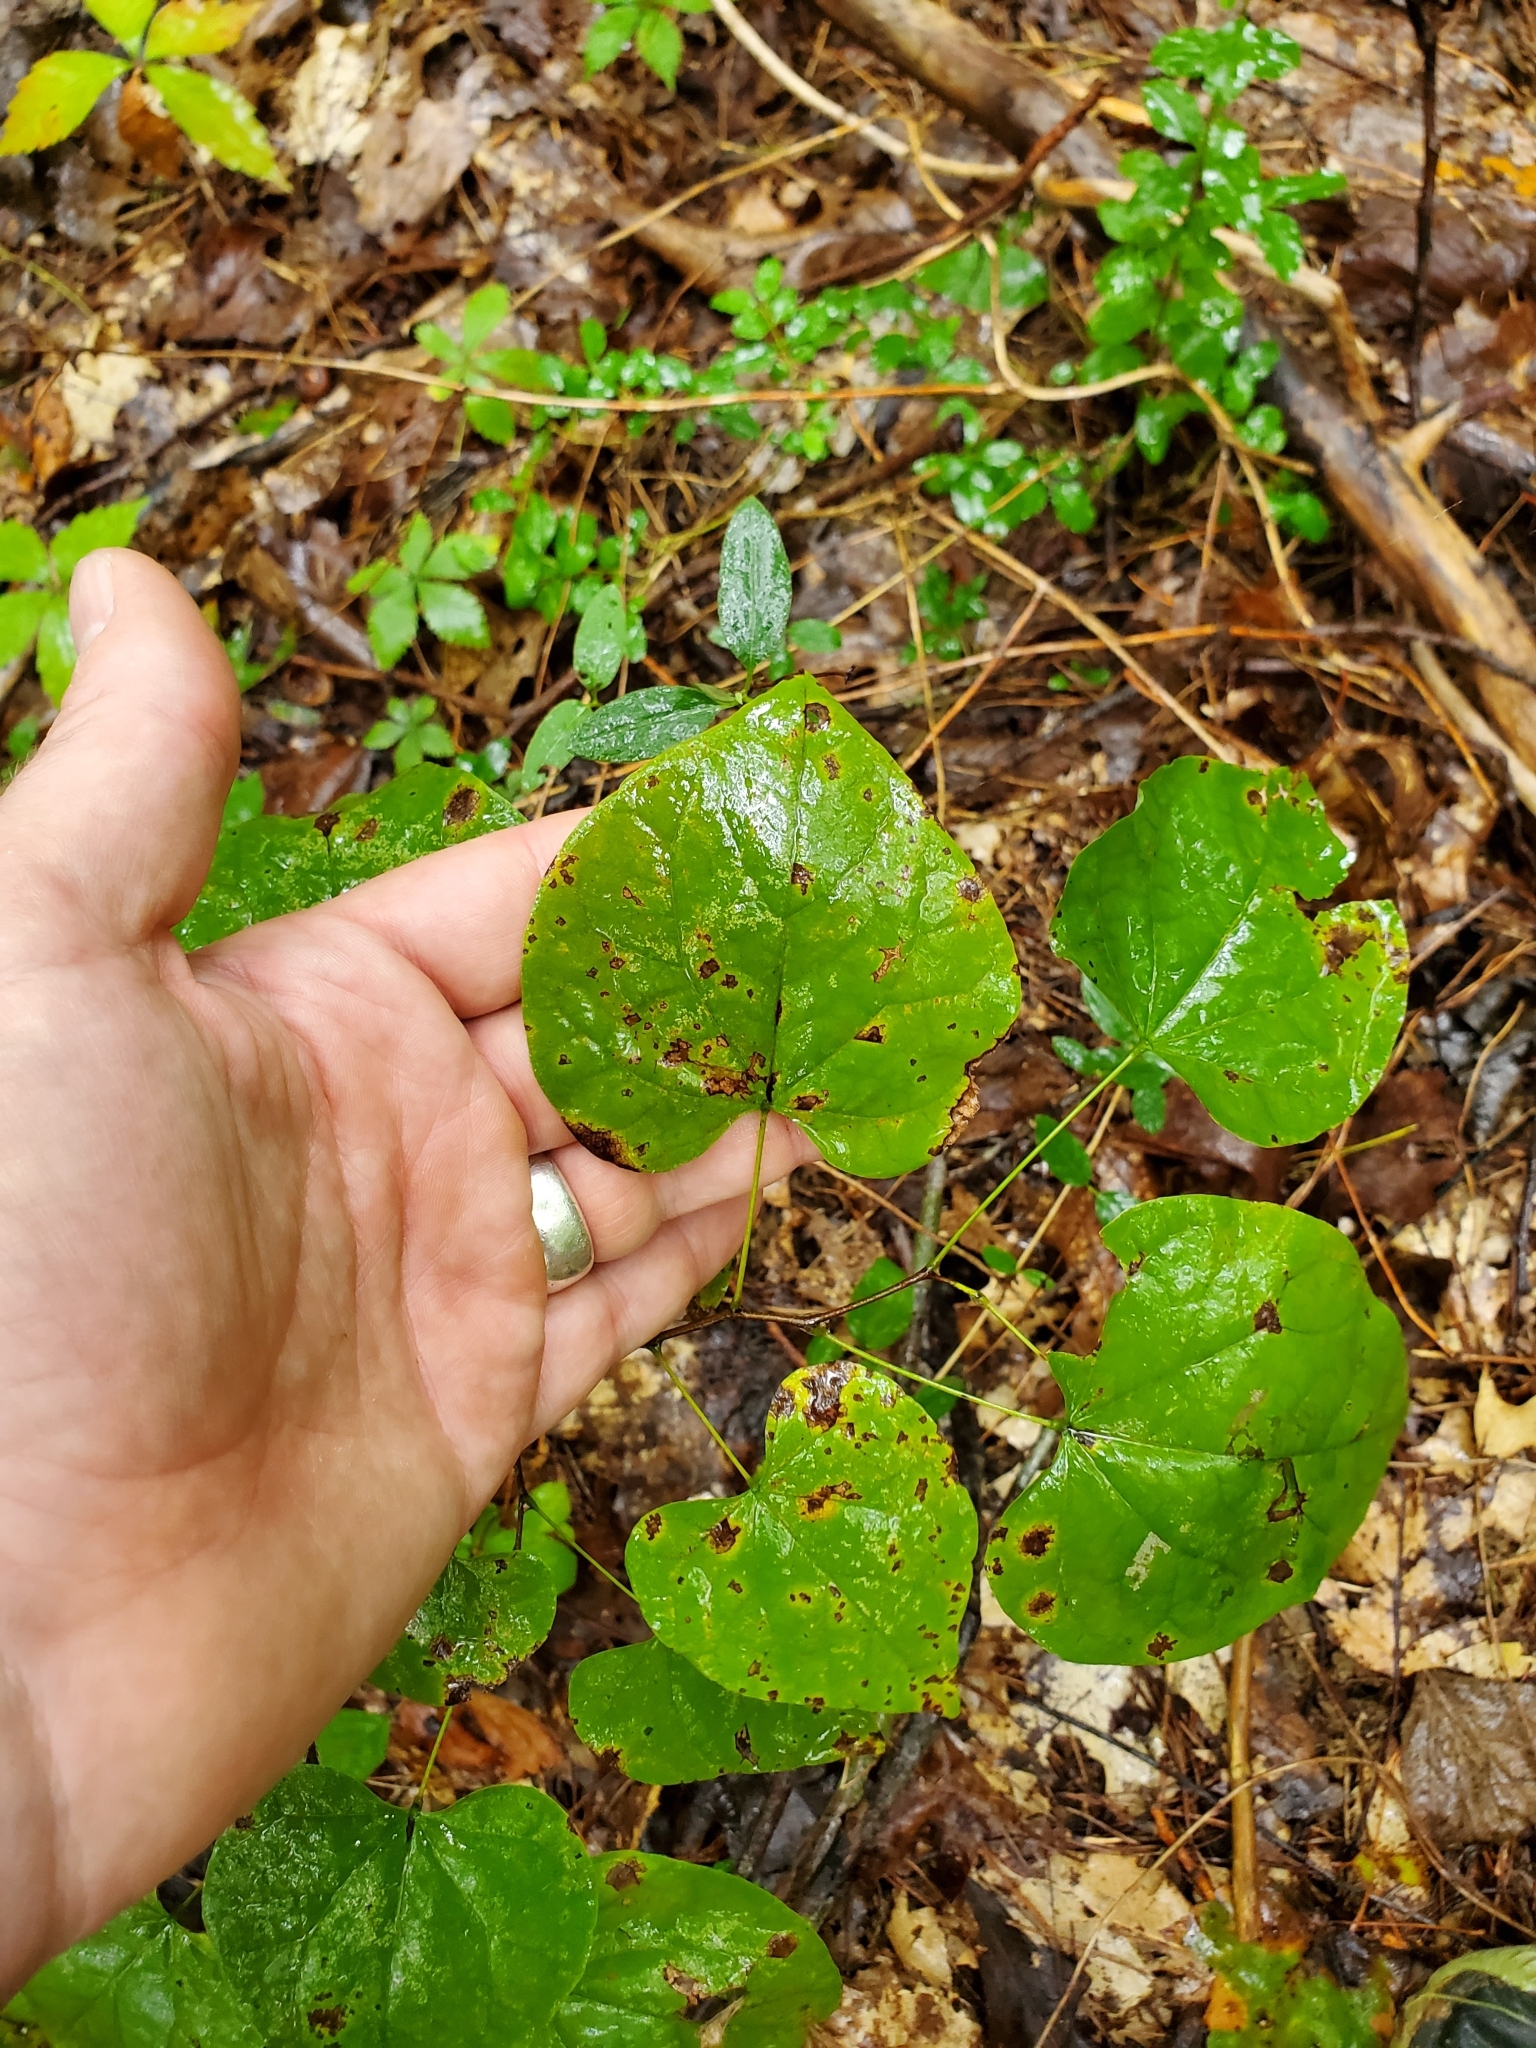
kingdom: Plantae
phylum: Tracheophyta
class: Magnoliopsida
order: Fabales
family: Fabaceae
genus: Cercis
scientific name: Cercis canadensis
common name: Eastern redbud
